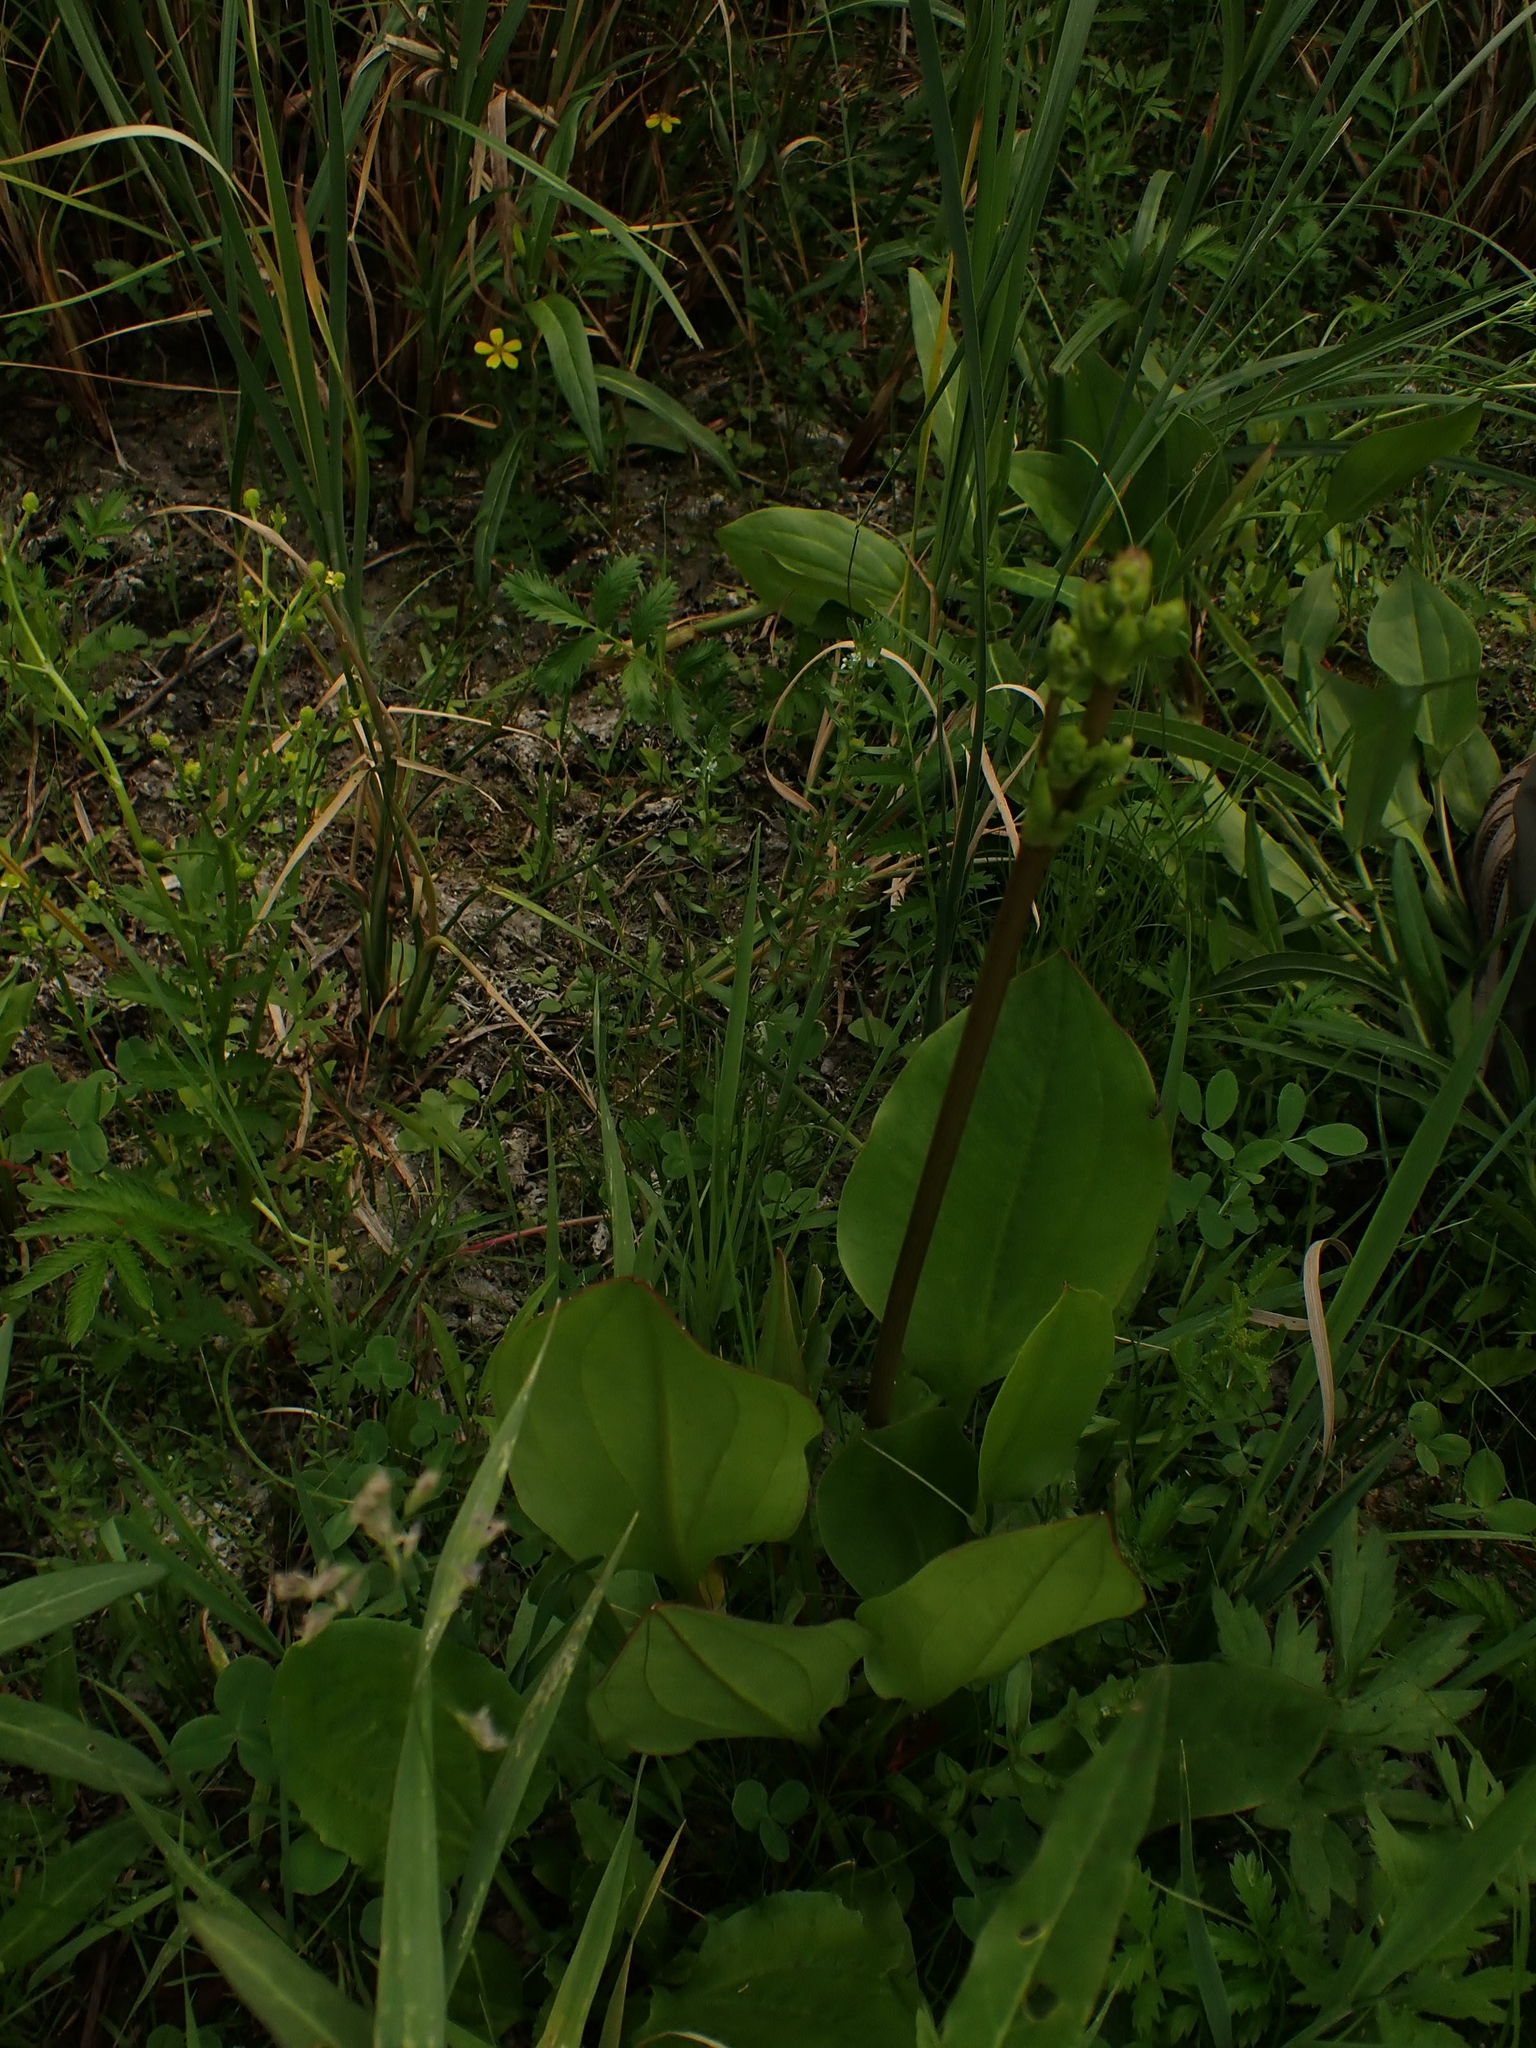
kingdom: Plantae
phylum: Tracheophyta
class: Liliopsida
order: Alismatales
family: Alismataceae
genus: Alisma
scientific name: Alisma triviale
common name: Northern water-plantain
